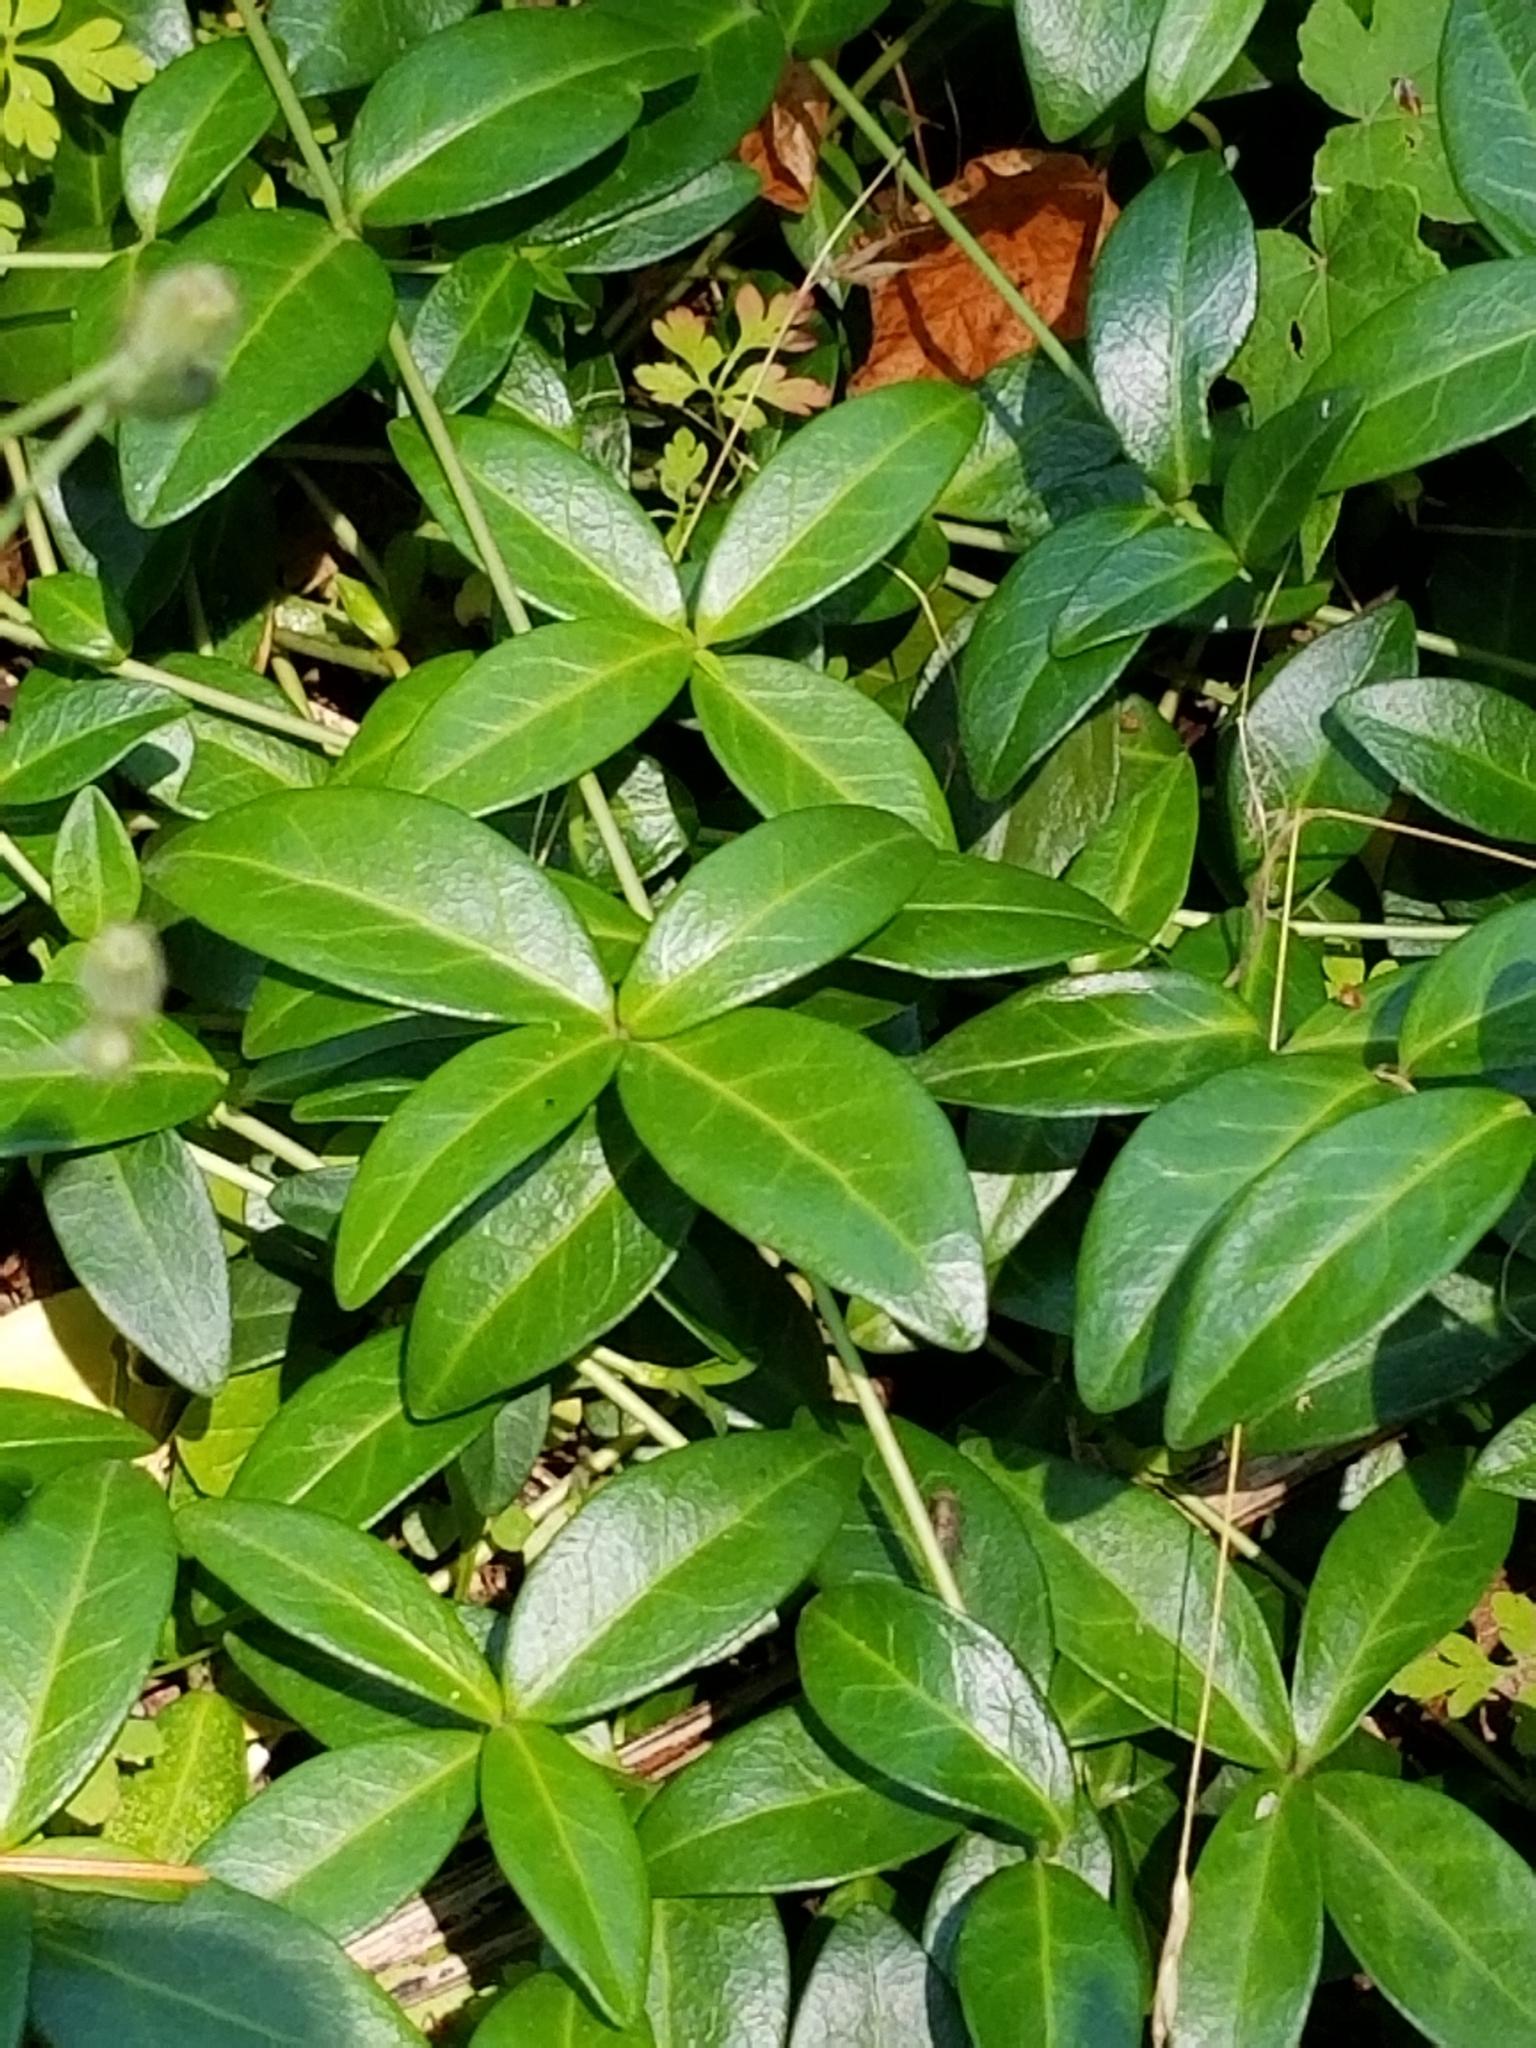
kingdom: Plantae
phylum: Tracheophyta
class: Magnoliopsida
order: Gentianales
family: Apocynaceae
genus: Vinca
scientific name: Vinca minor
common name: Lesser periwinkle
